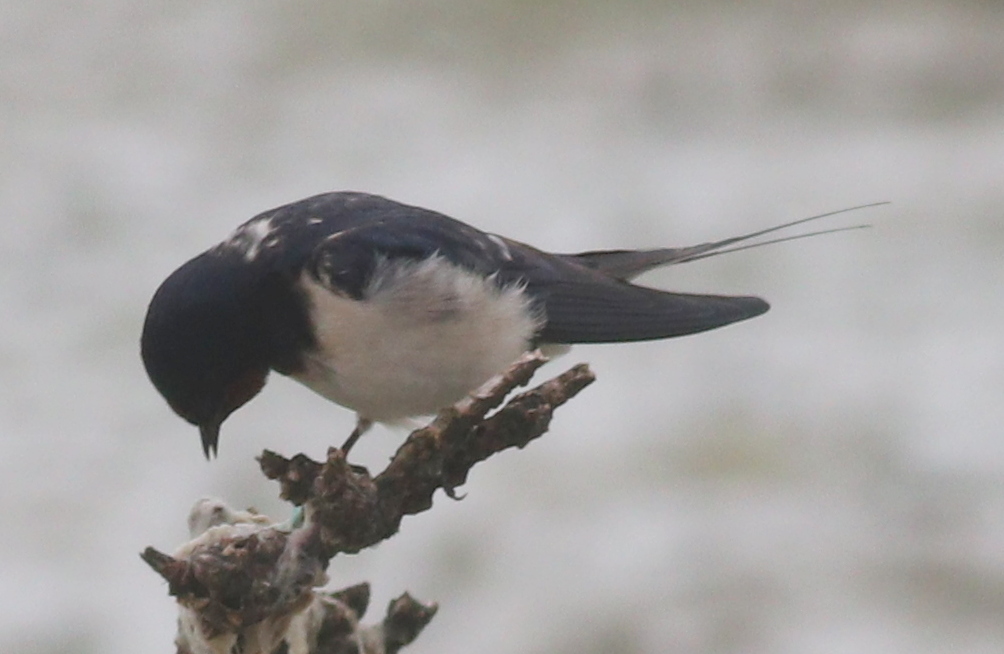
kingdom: Animalia
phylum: Chordata
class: Aves
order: Passeriformes
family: Hirundinidae
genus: Hirundo
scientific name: Hirundo rustica
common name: Barn swallow
